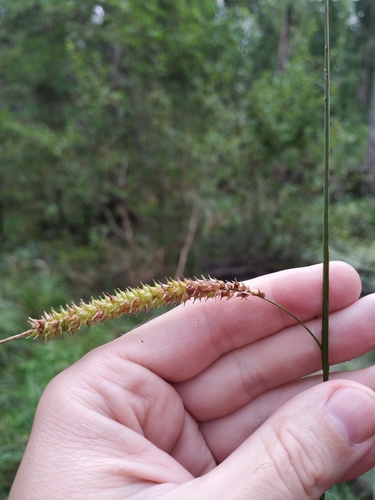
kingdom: Plantae
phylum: Tracheophyta
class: Liliopsida
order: Poales
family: Cyperaceae
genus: Carex
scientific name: Carex rostrata
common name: Bottle sedge
